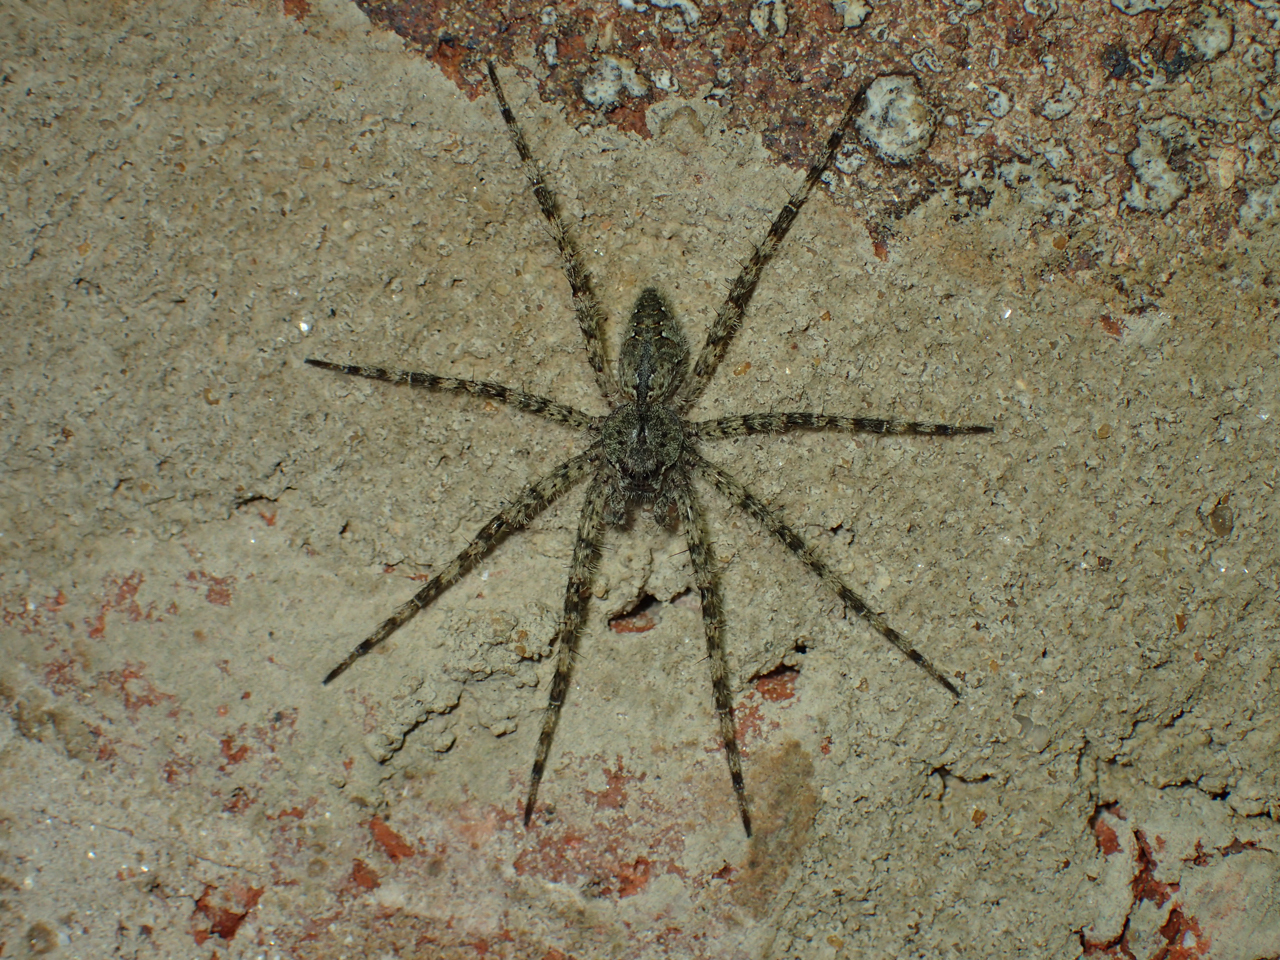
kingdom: Animalia
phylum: Arthropoda
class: Arachnida
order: Araneae
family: Pisauridae
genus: Dolomedes
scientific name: Dolomedes albineus
